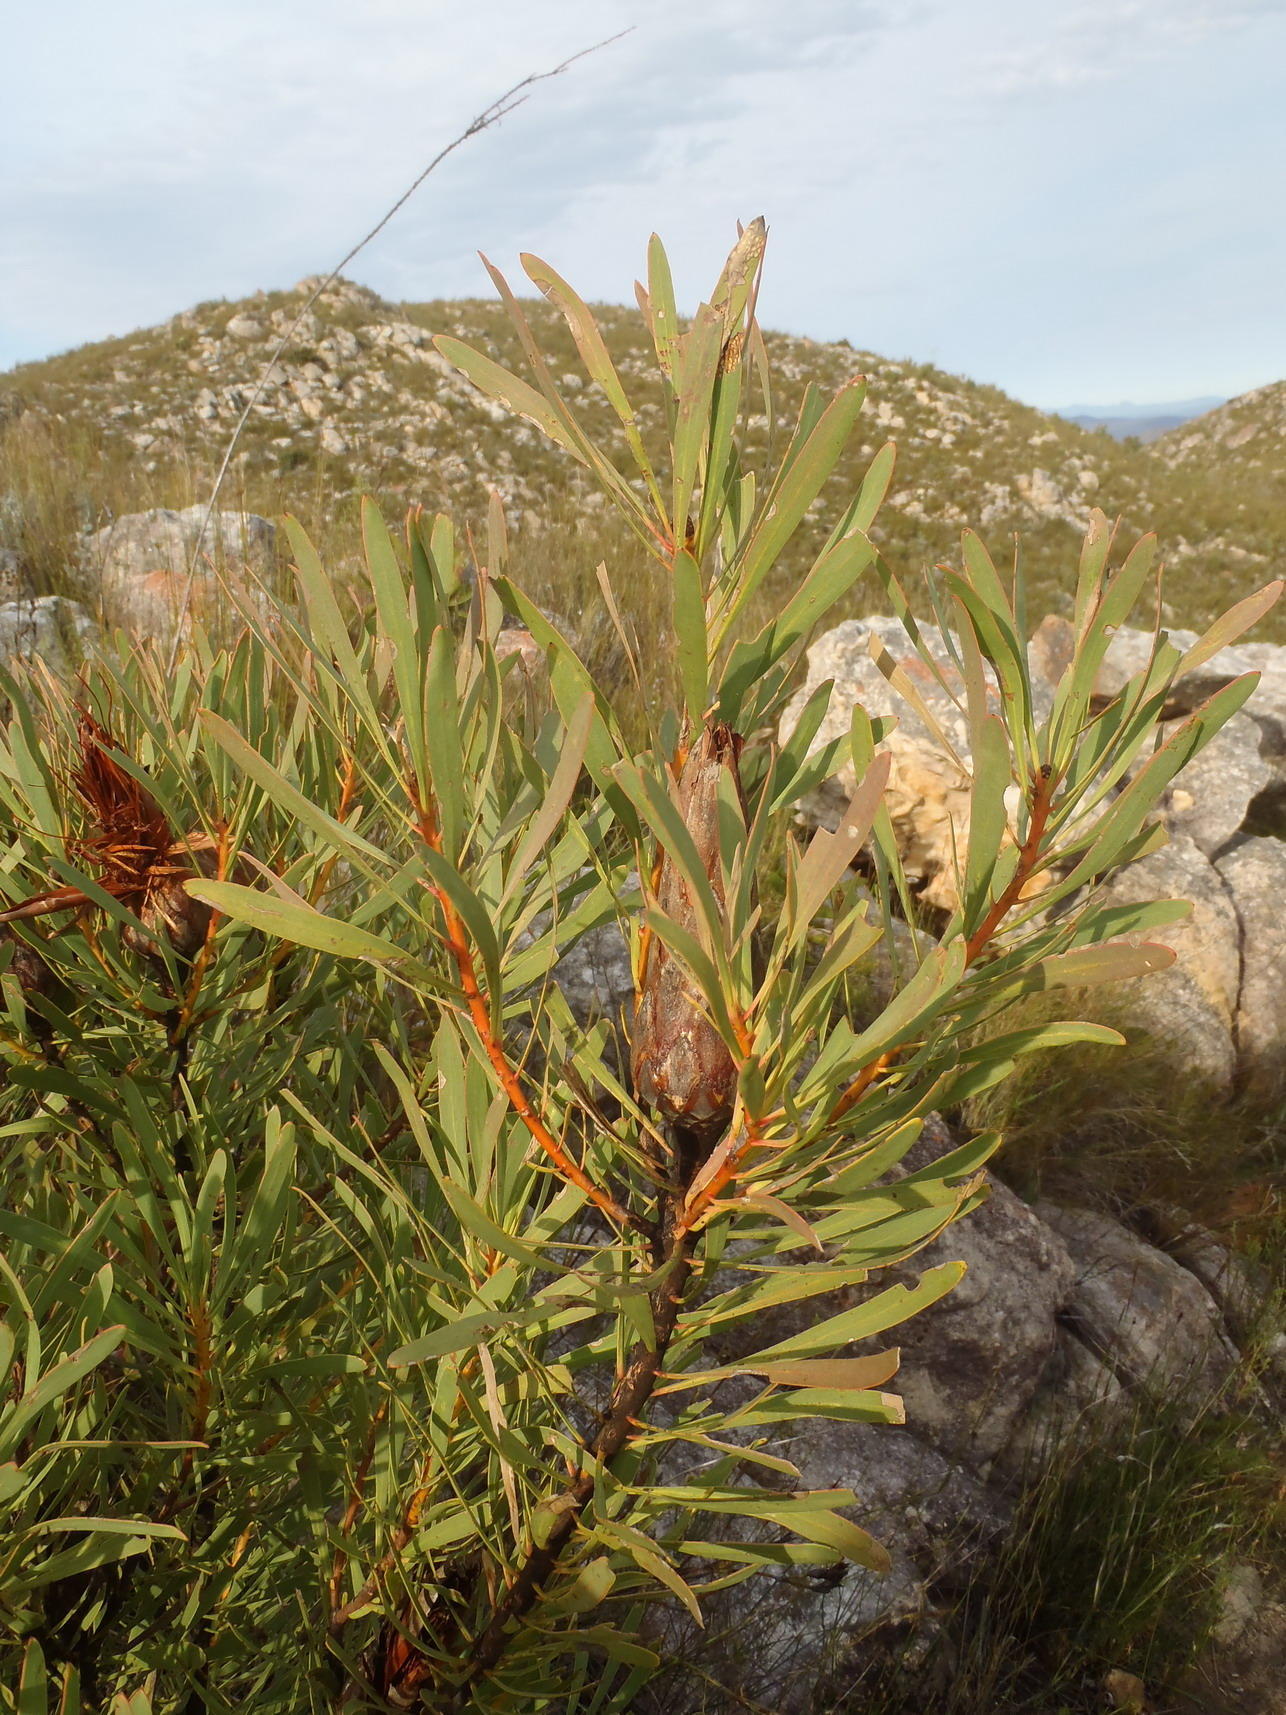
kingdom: Plantae
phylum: Tracheophyta
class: Magnoliopsida
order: Proteales
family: Proteaceae
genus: Protea
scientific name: Protea repens
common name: Sugarbush
